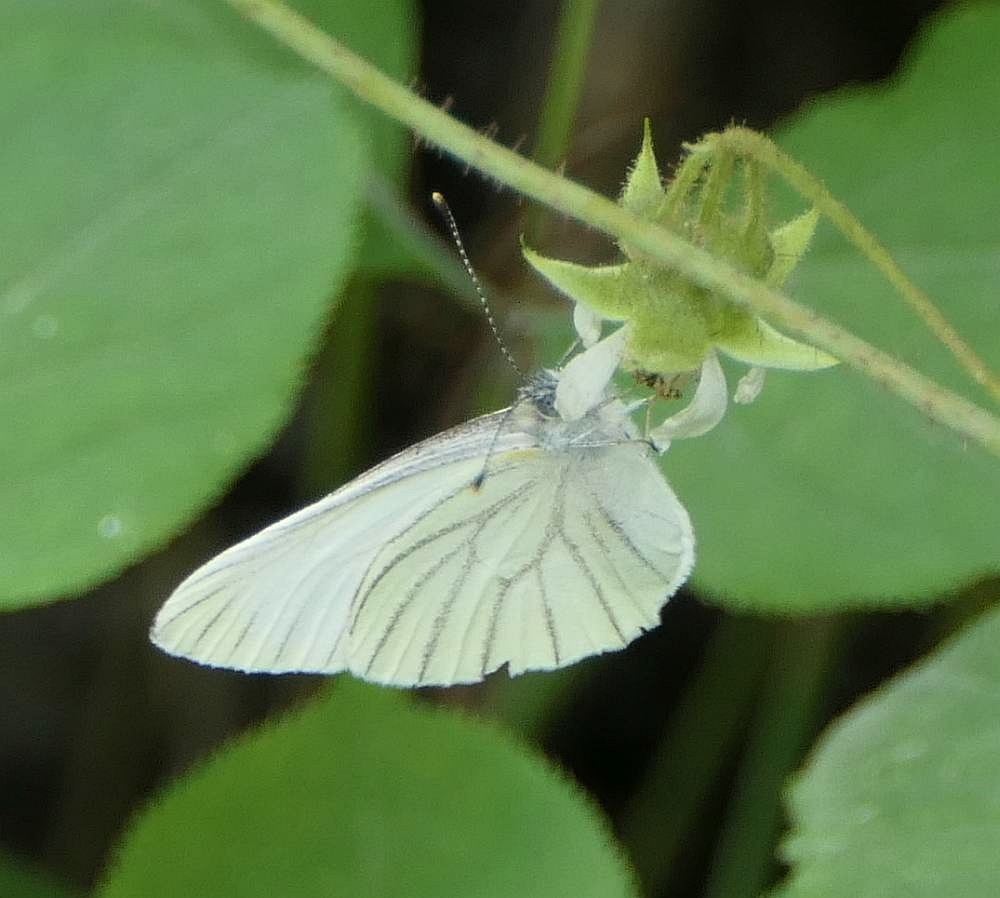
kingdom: Animalia
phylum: Arthropoda
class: Insecta
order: Lepidoptera
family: Pieridae
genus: Pieris
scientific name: Pieris oleracea
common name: Mustard white
